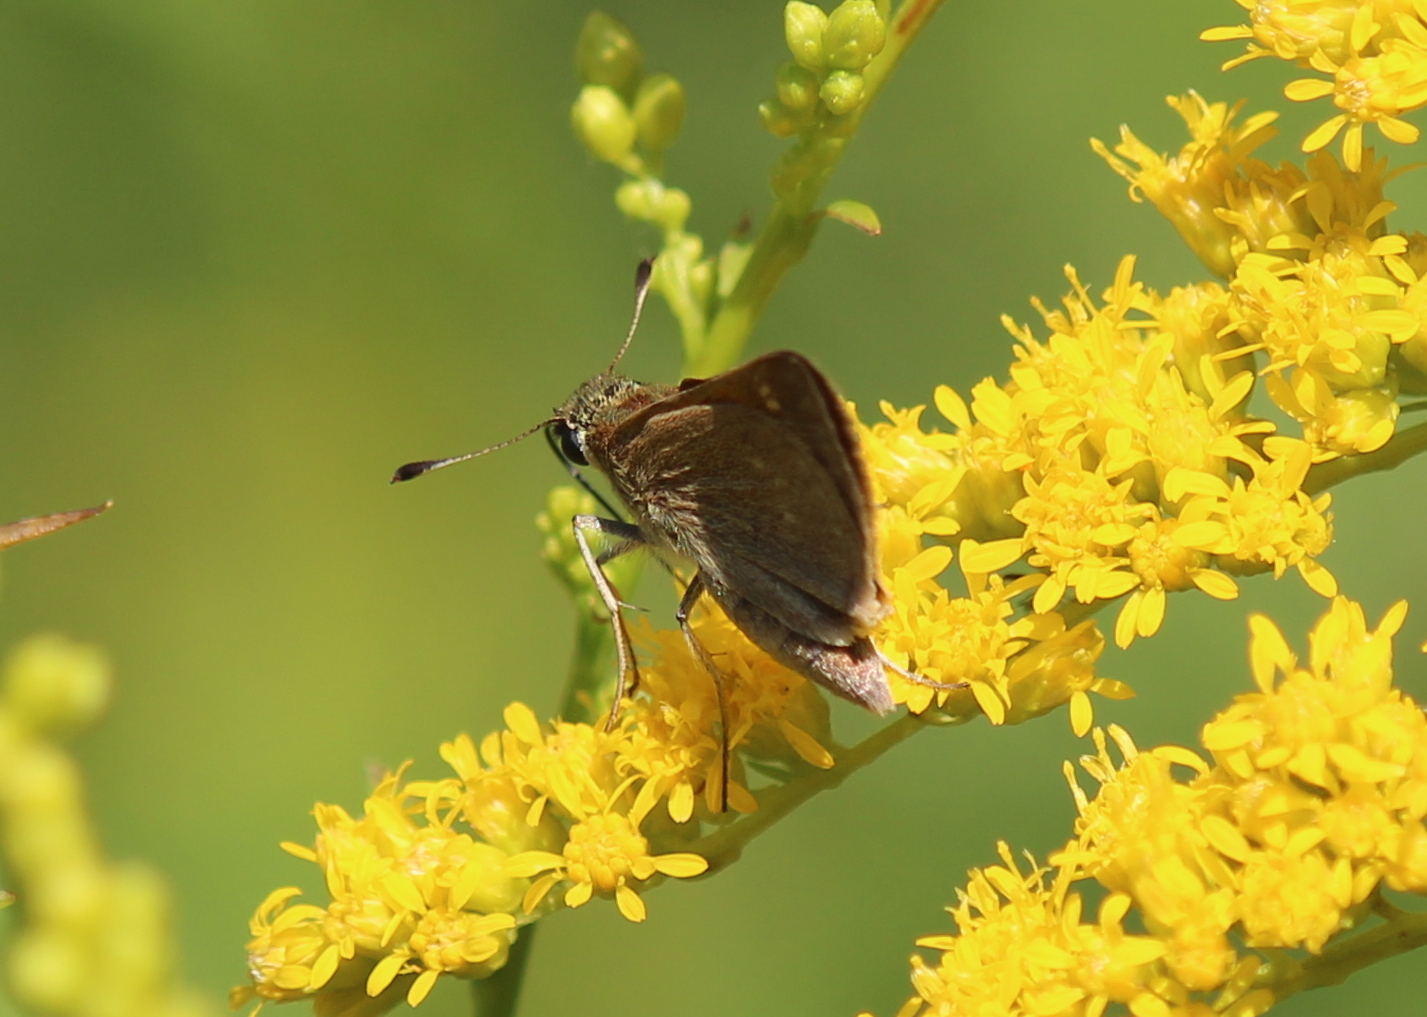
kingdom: Animalia
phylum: Arthropoda
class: Insecta
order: Lepidoptera
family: Hesperiidae
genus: Polites
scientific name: Polites themistocles
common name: Tawny-edged skipper
